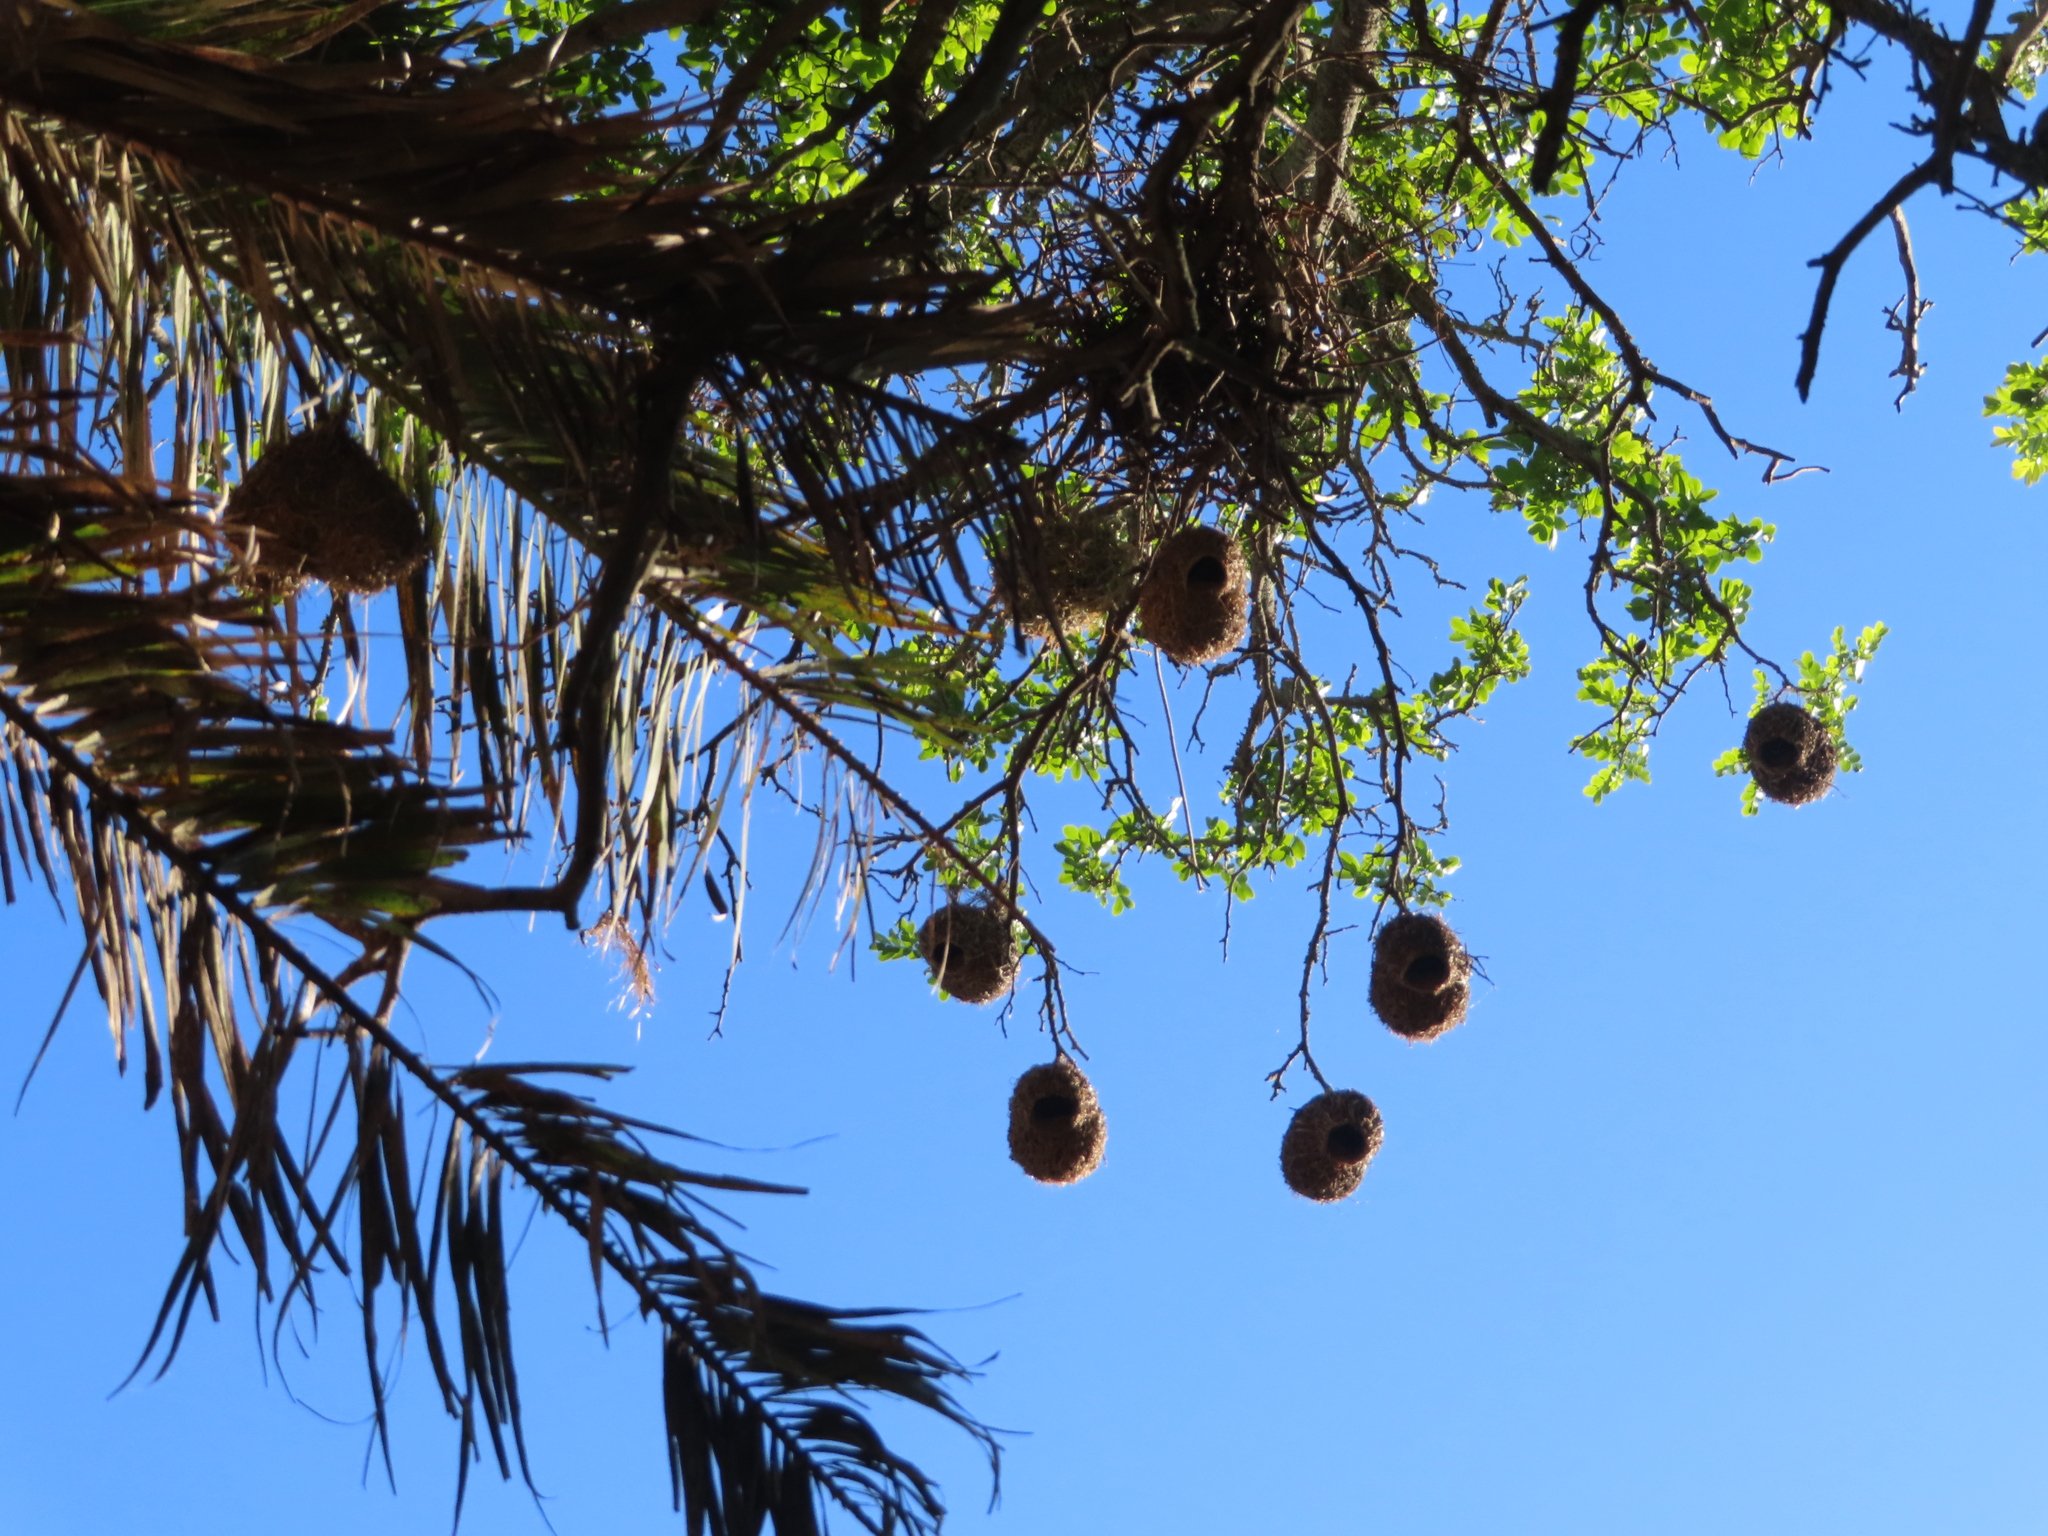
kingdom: Animalia
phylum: Chordata
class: Aves
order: Passeriformes
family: Ploceidae
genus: Ploceus
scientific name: Ploceus capensis
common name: Cape weaver
